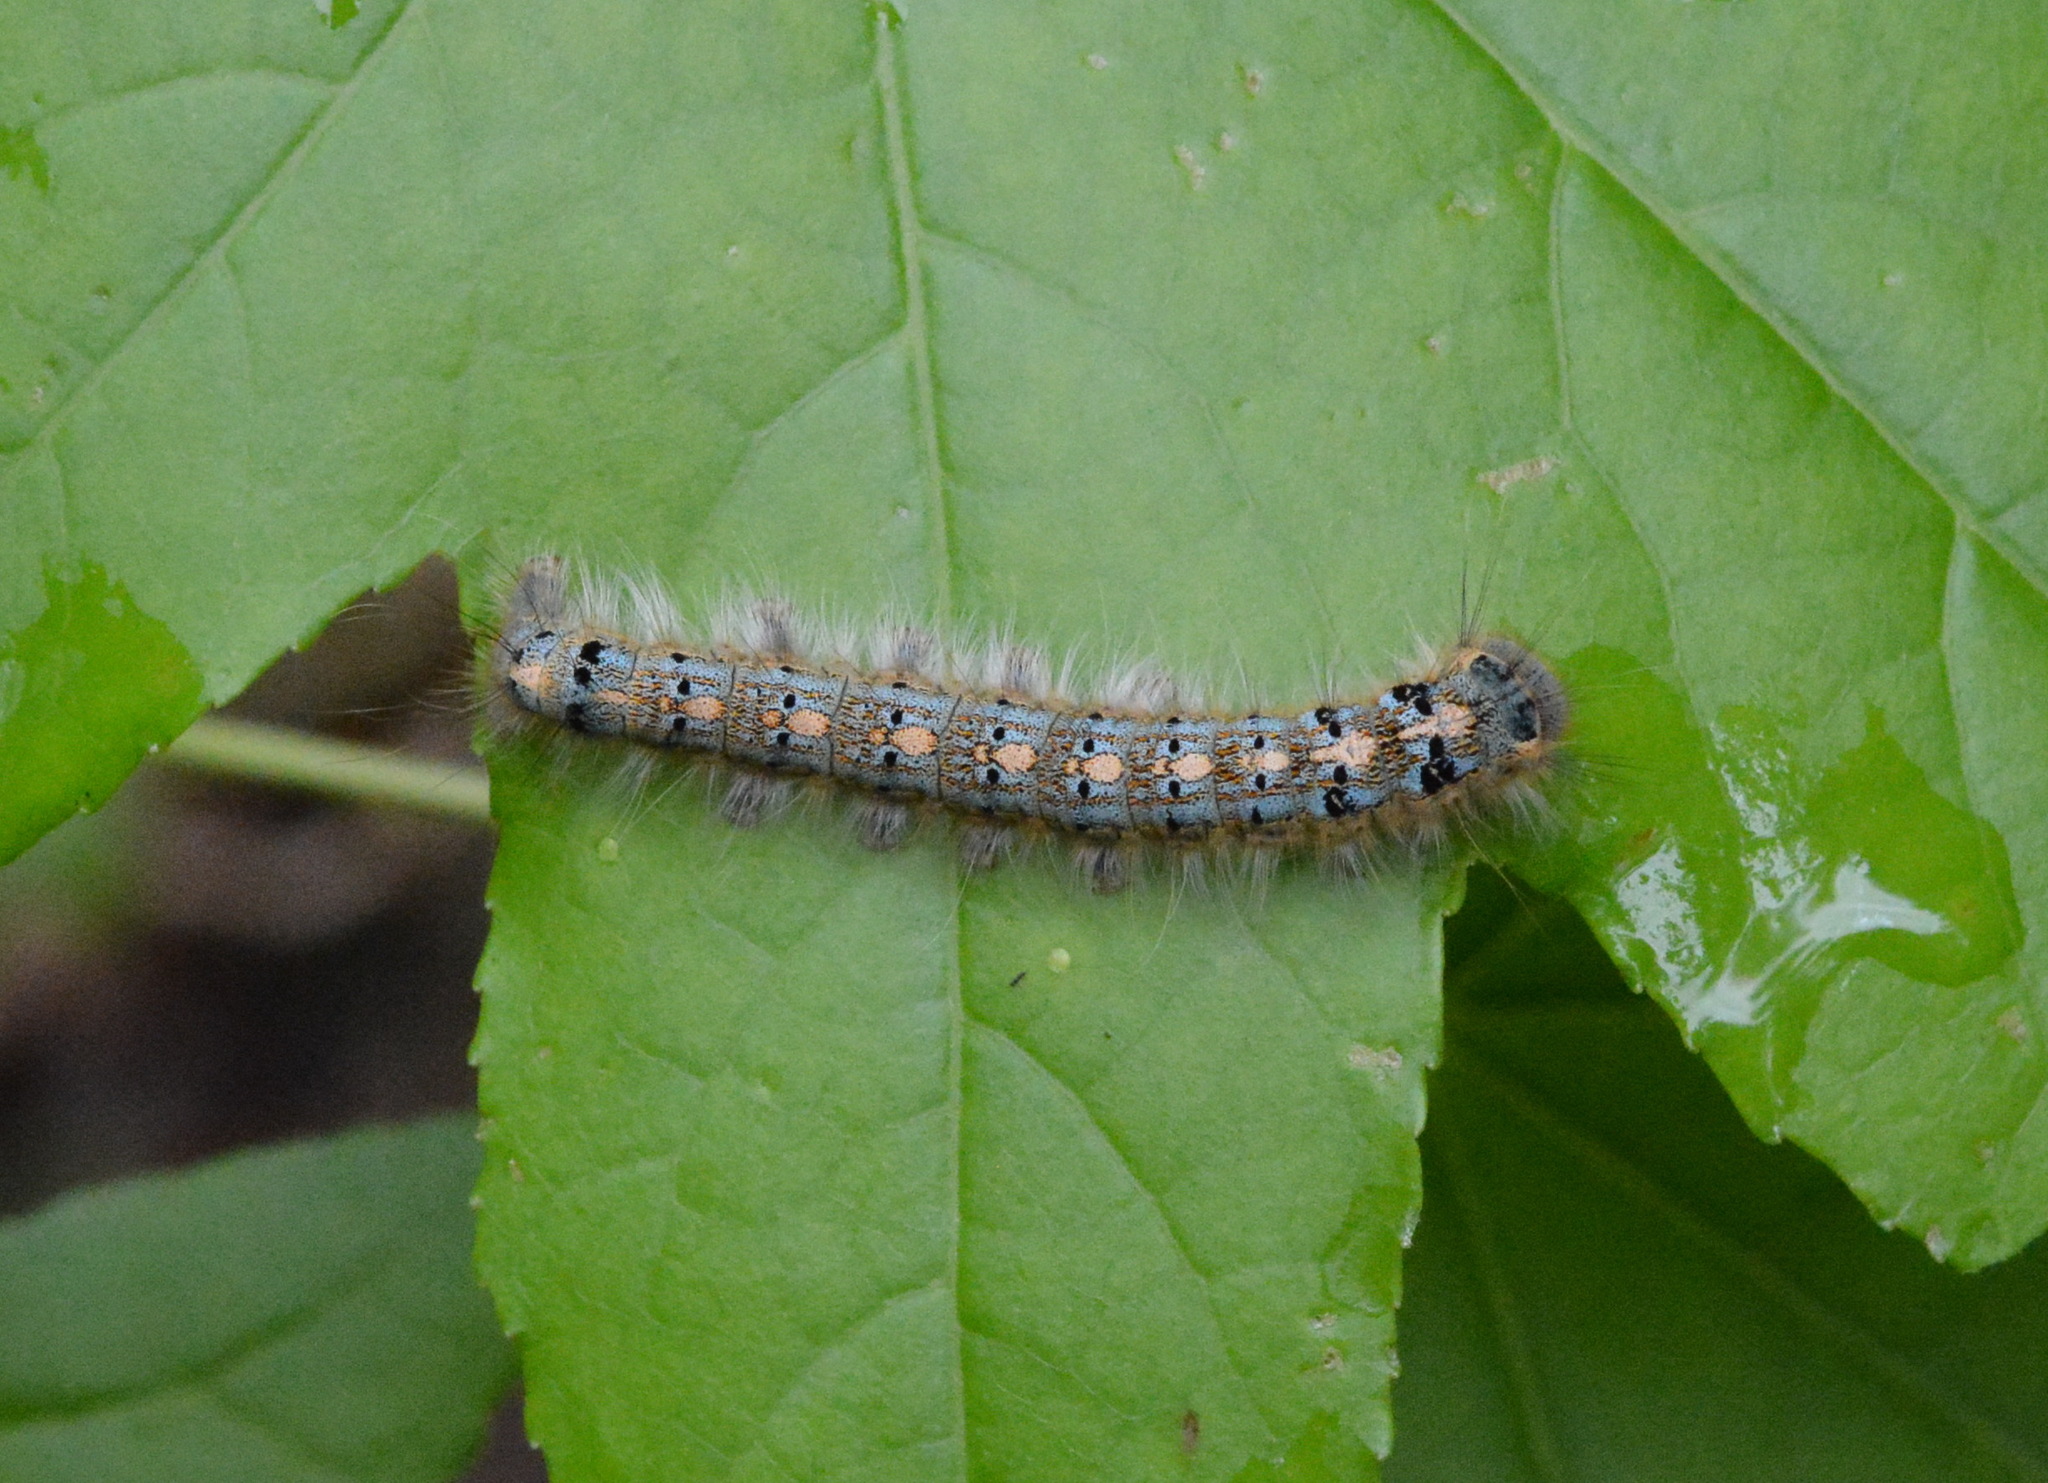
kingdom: Animalia
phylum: Arthropoda
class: Insecta
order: Lepidoptera
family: Lasiocampidae
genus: Malacosoma
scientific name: Malacosoma disstria
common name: Forest tent caterpillar
